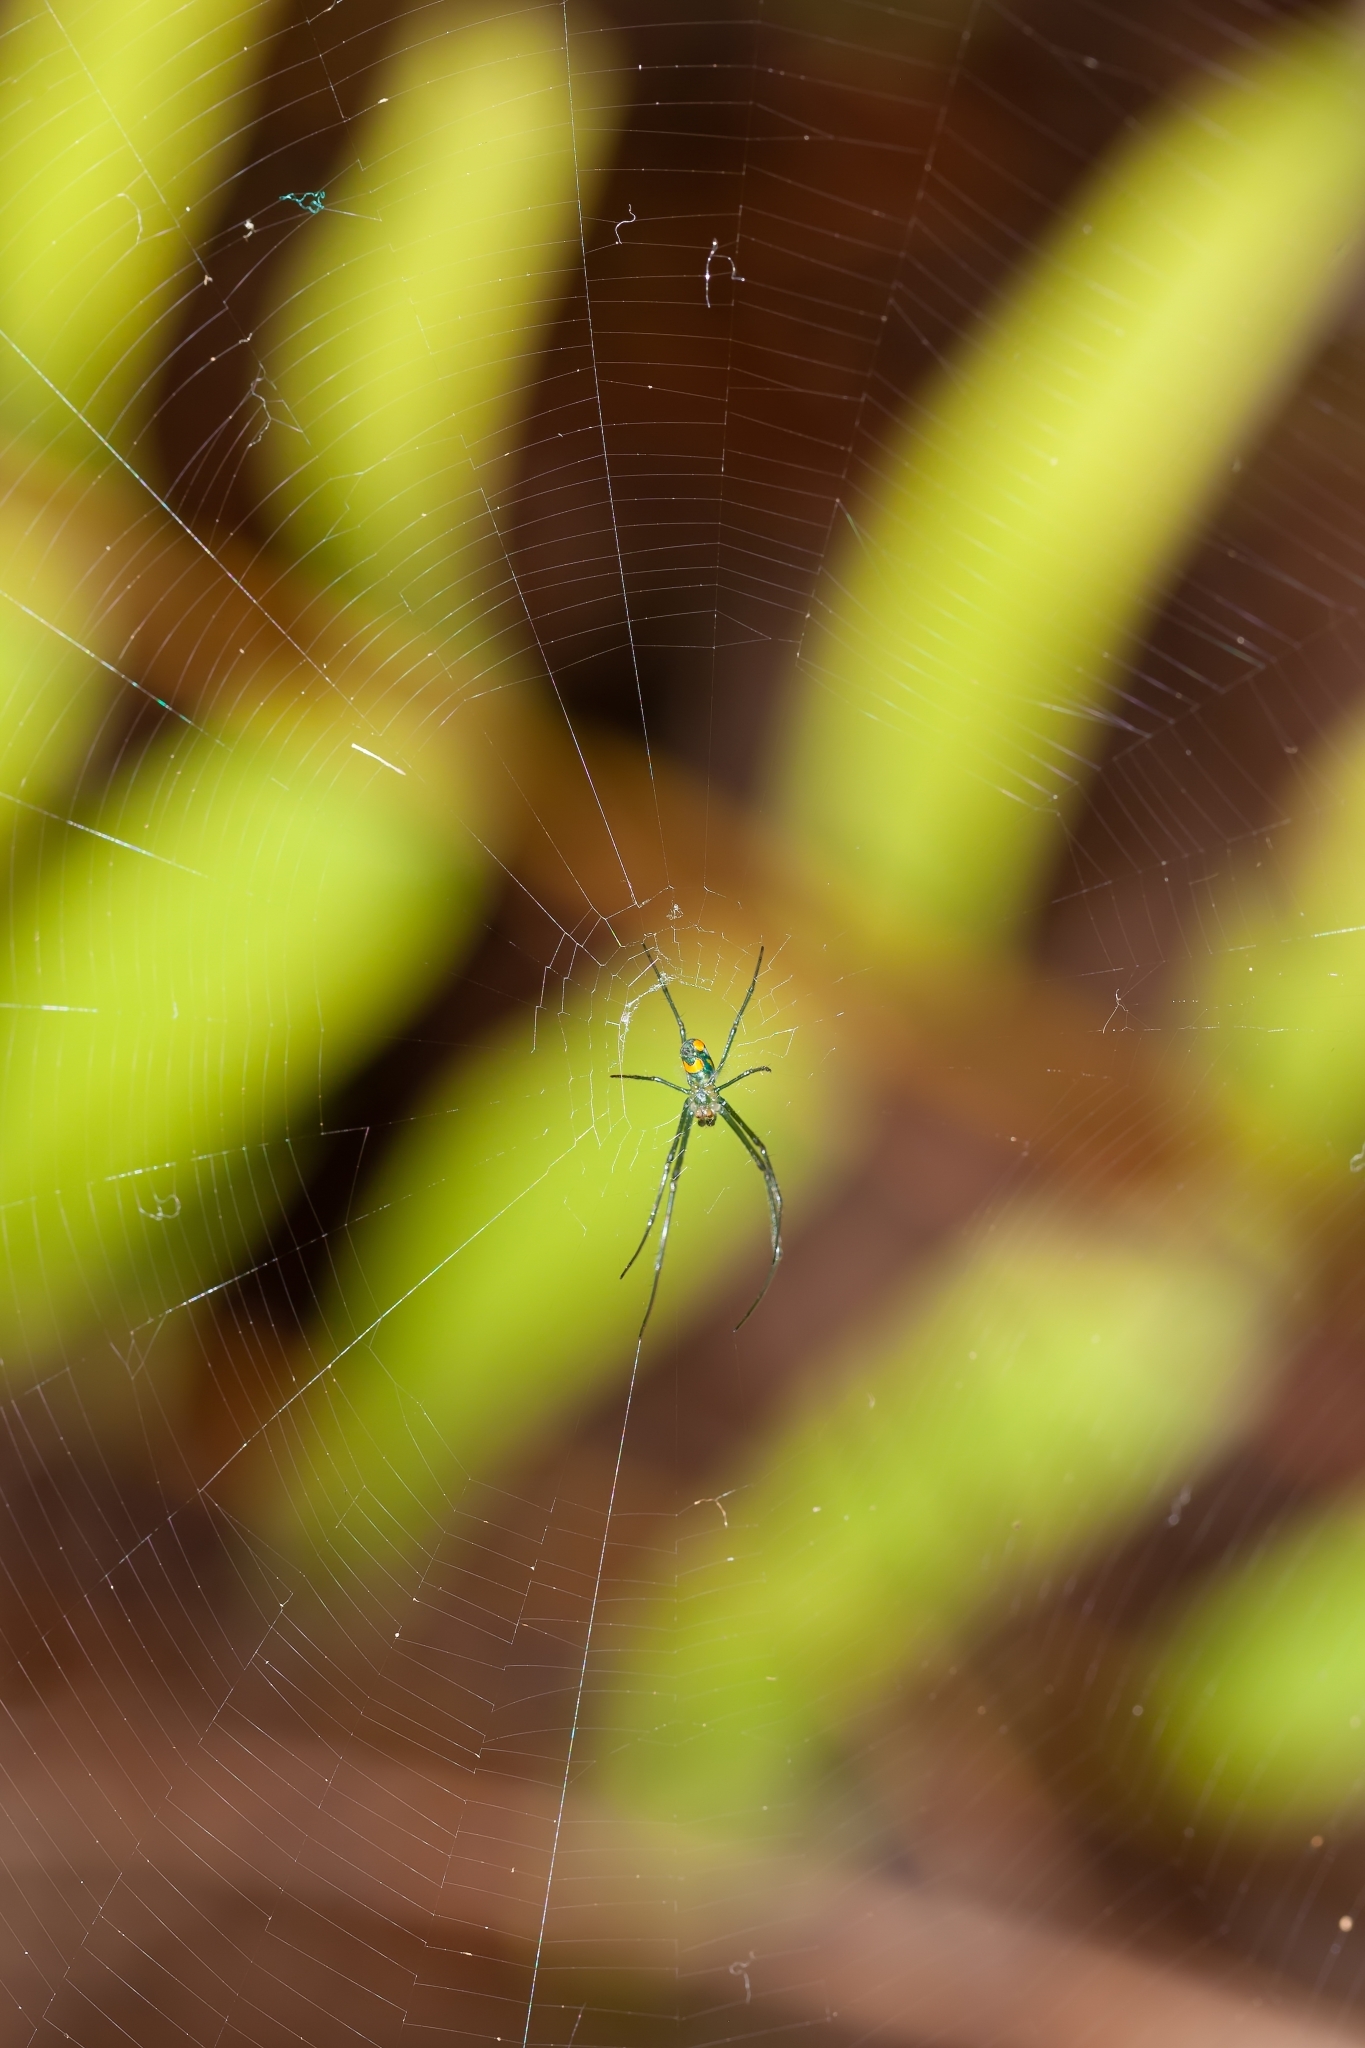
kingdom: Animalia
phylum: Arthropoda
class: Arachnida
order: Araneae
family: Tetragnathidae
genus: Leucauge
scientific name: Leucauge argyrobapta
